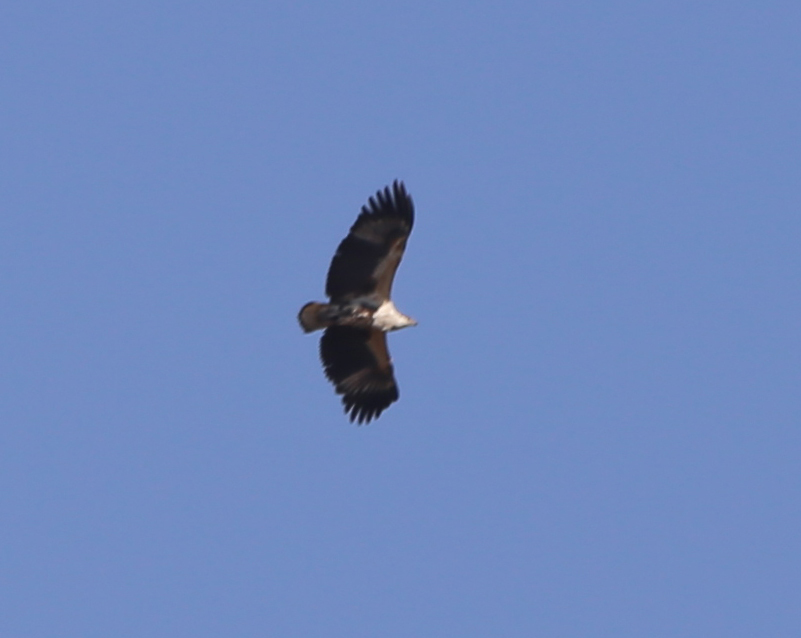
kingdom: Animalia
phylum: Chordata
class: Aves
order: Accipitriformes
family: Accipitridae
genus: Haliaeetus
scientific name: Haliaeetus vocifer
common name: African fish eagle
